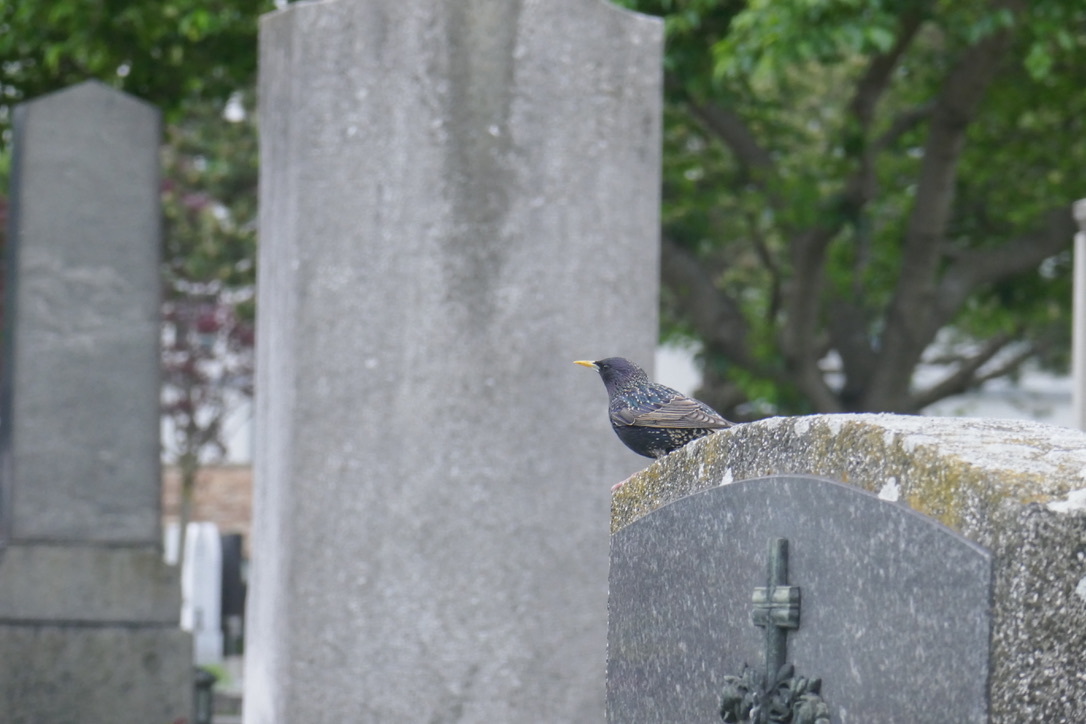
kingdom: Animalia
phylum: Chordata
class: Aves
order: Passeriformes
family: Sturnidae
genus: Sturnus
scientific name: Sturnus vulgaris
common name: Common starling
